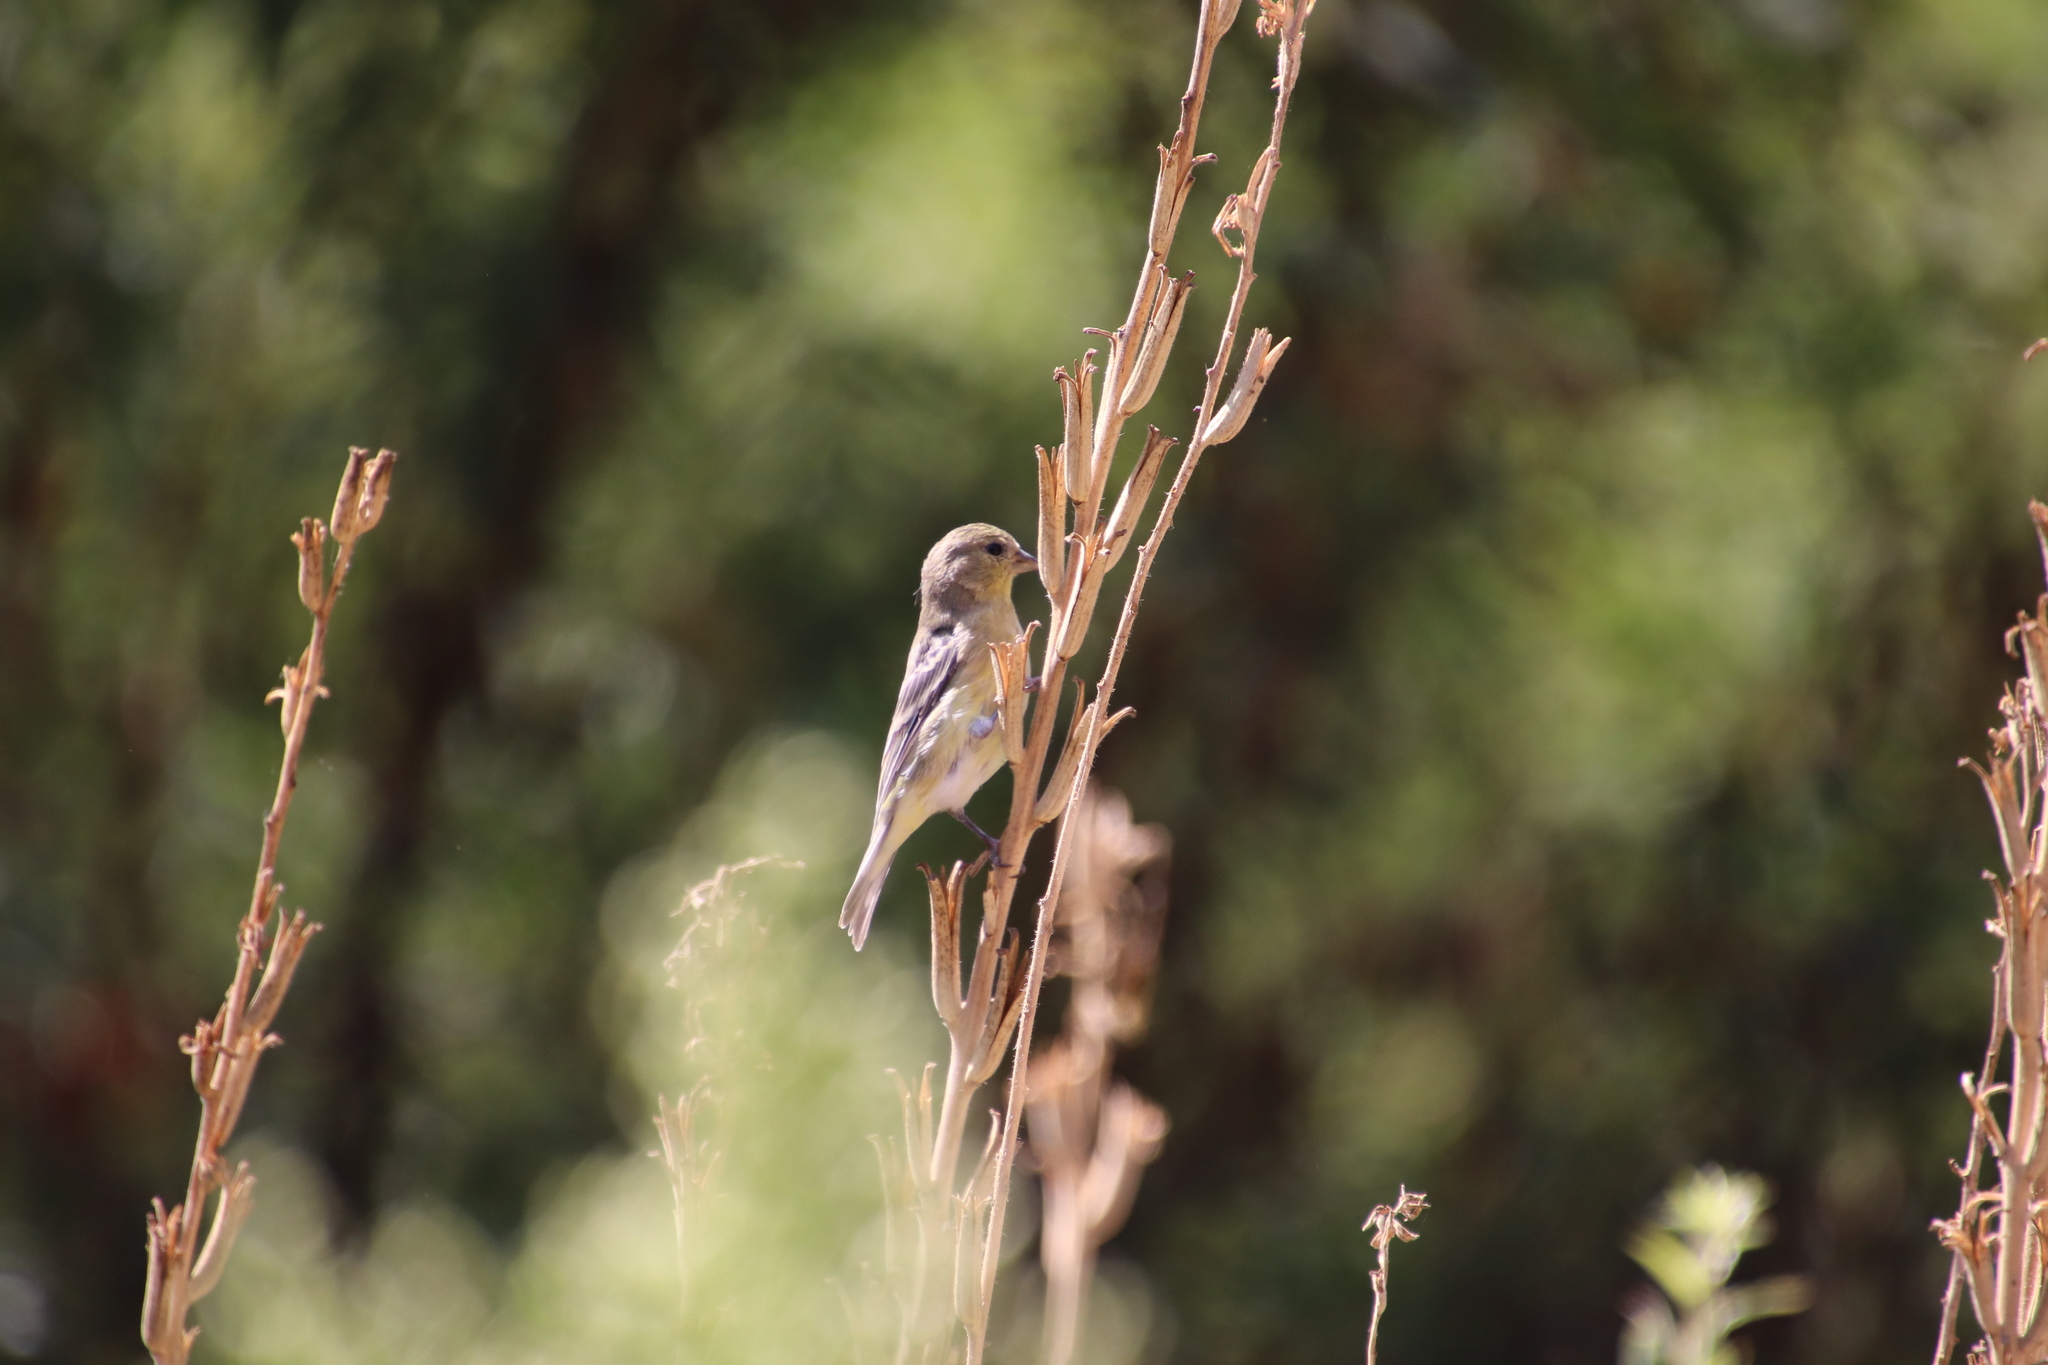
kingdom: Animalia
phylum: Chordata
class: Aves
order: Passeriformes
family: Fringillidae
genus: Spinus
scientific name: Spinus psaltria
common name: Lesser goldfinch
